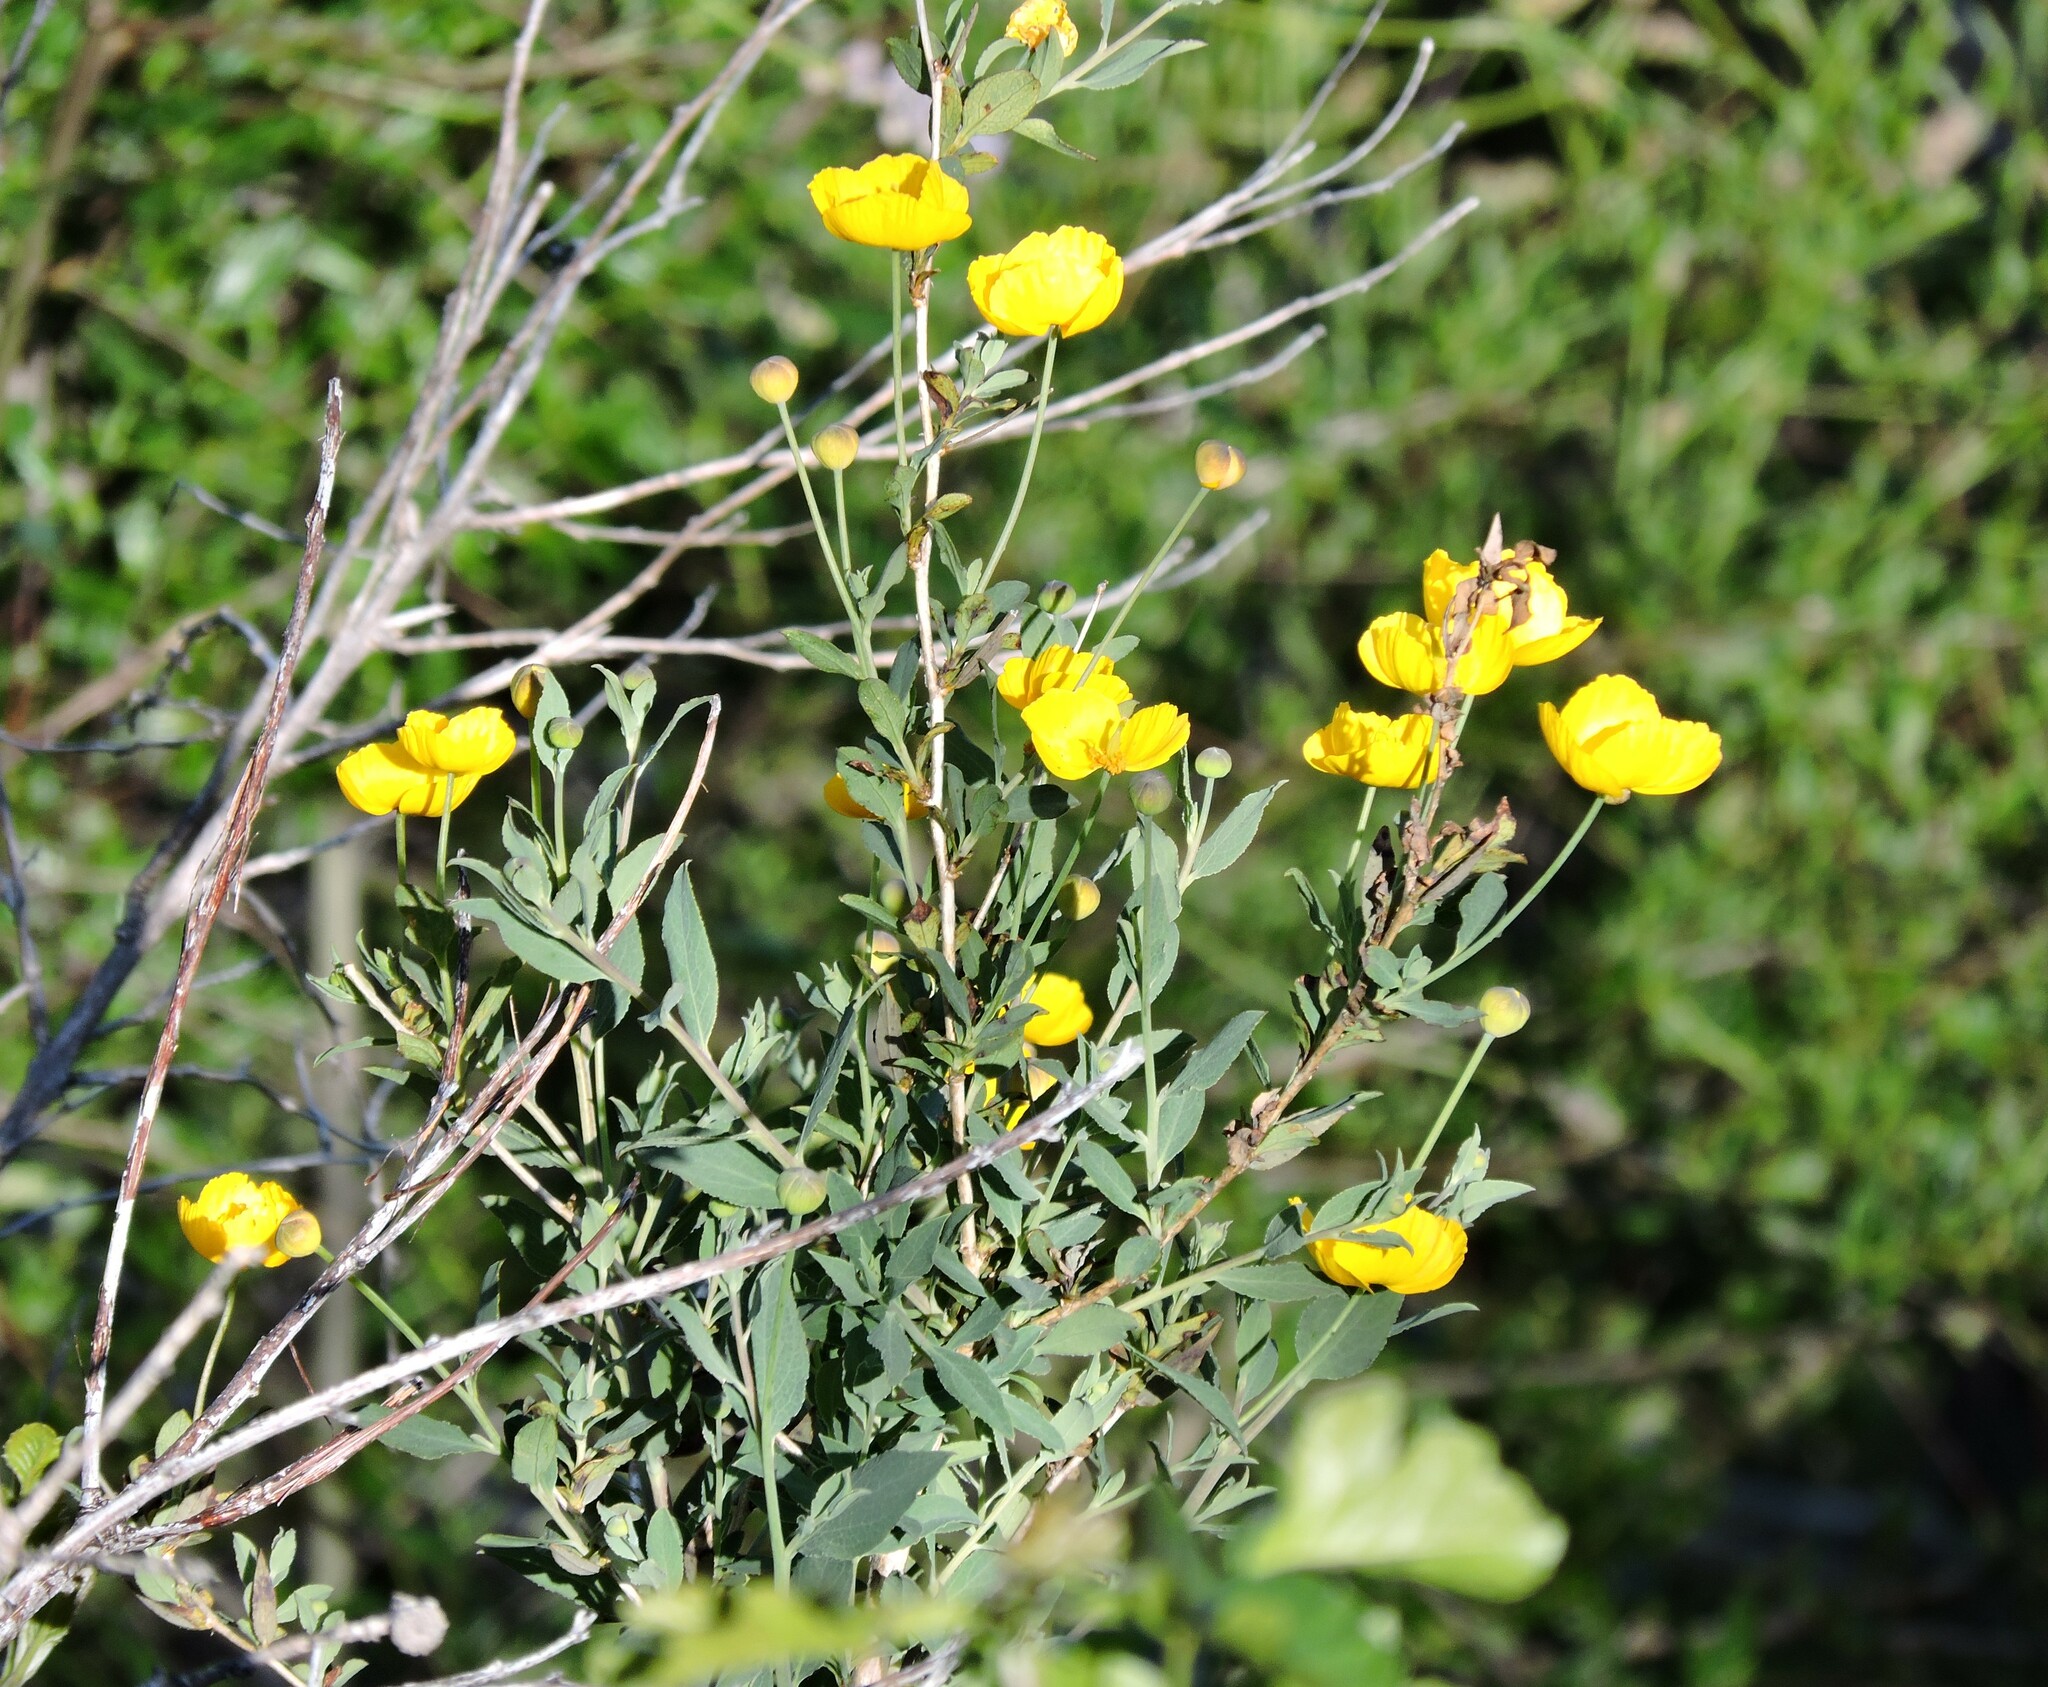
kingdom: Plantae
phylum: Tracheophyta
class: Magnoliopsida
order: Ranunculales
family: Papaveraceae
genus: Dendromecon
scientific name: Dendromecon rigida
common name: Tree poppy
